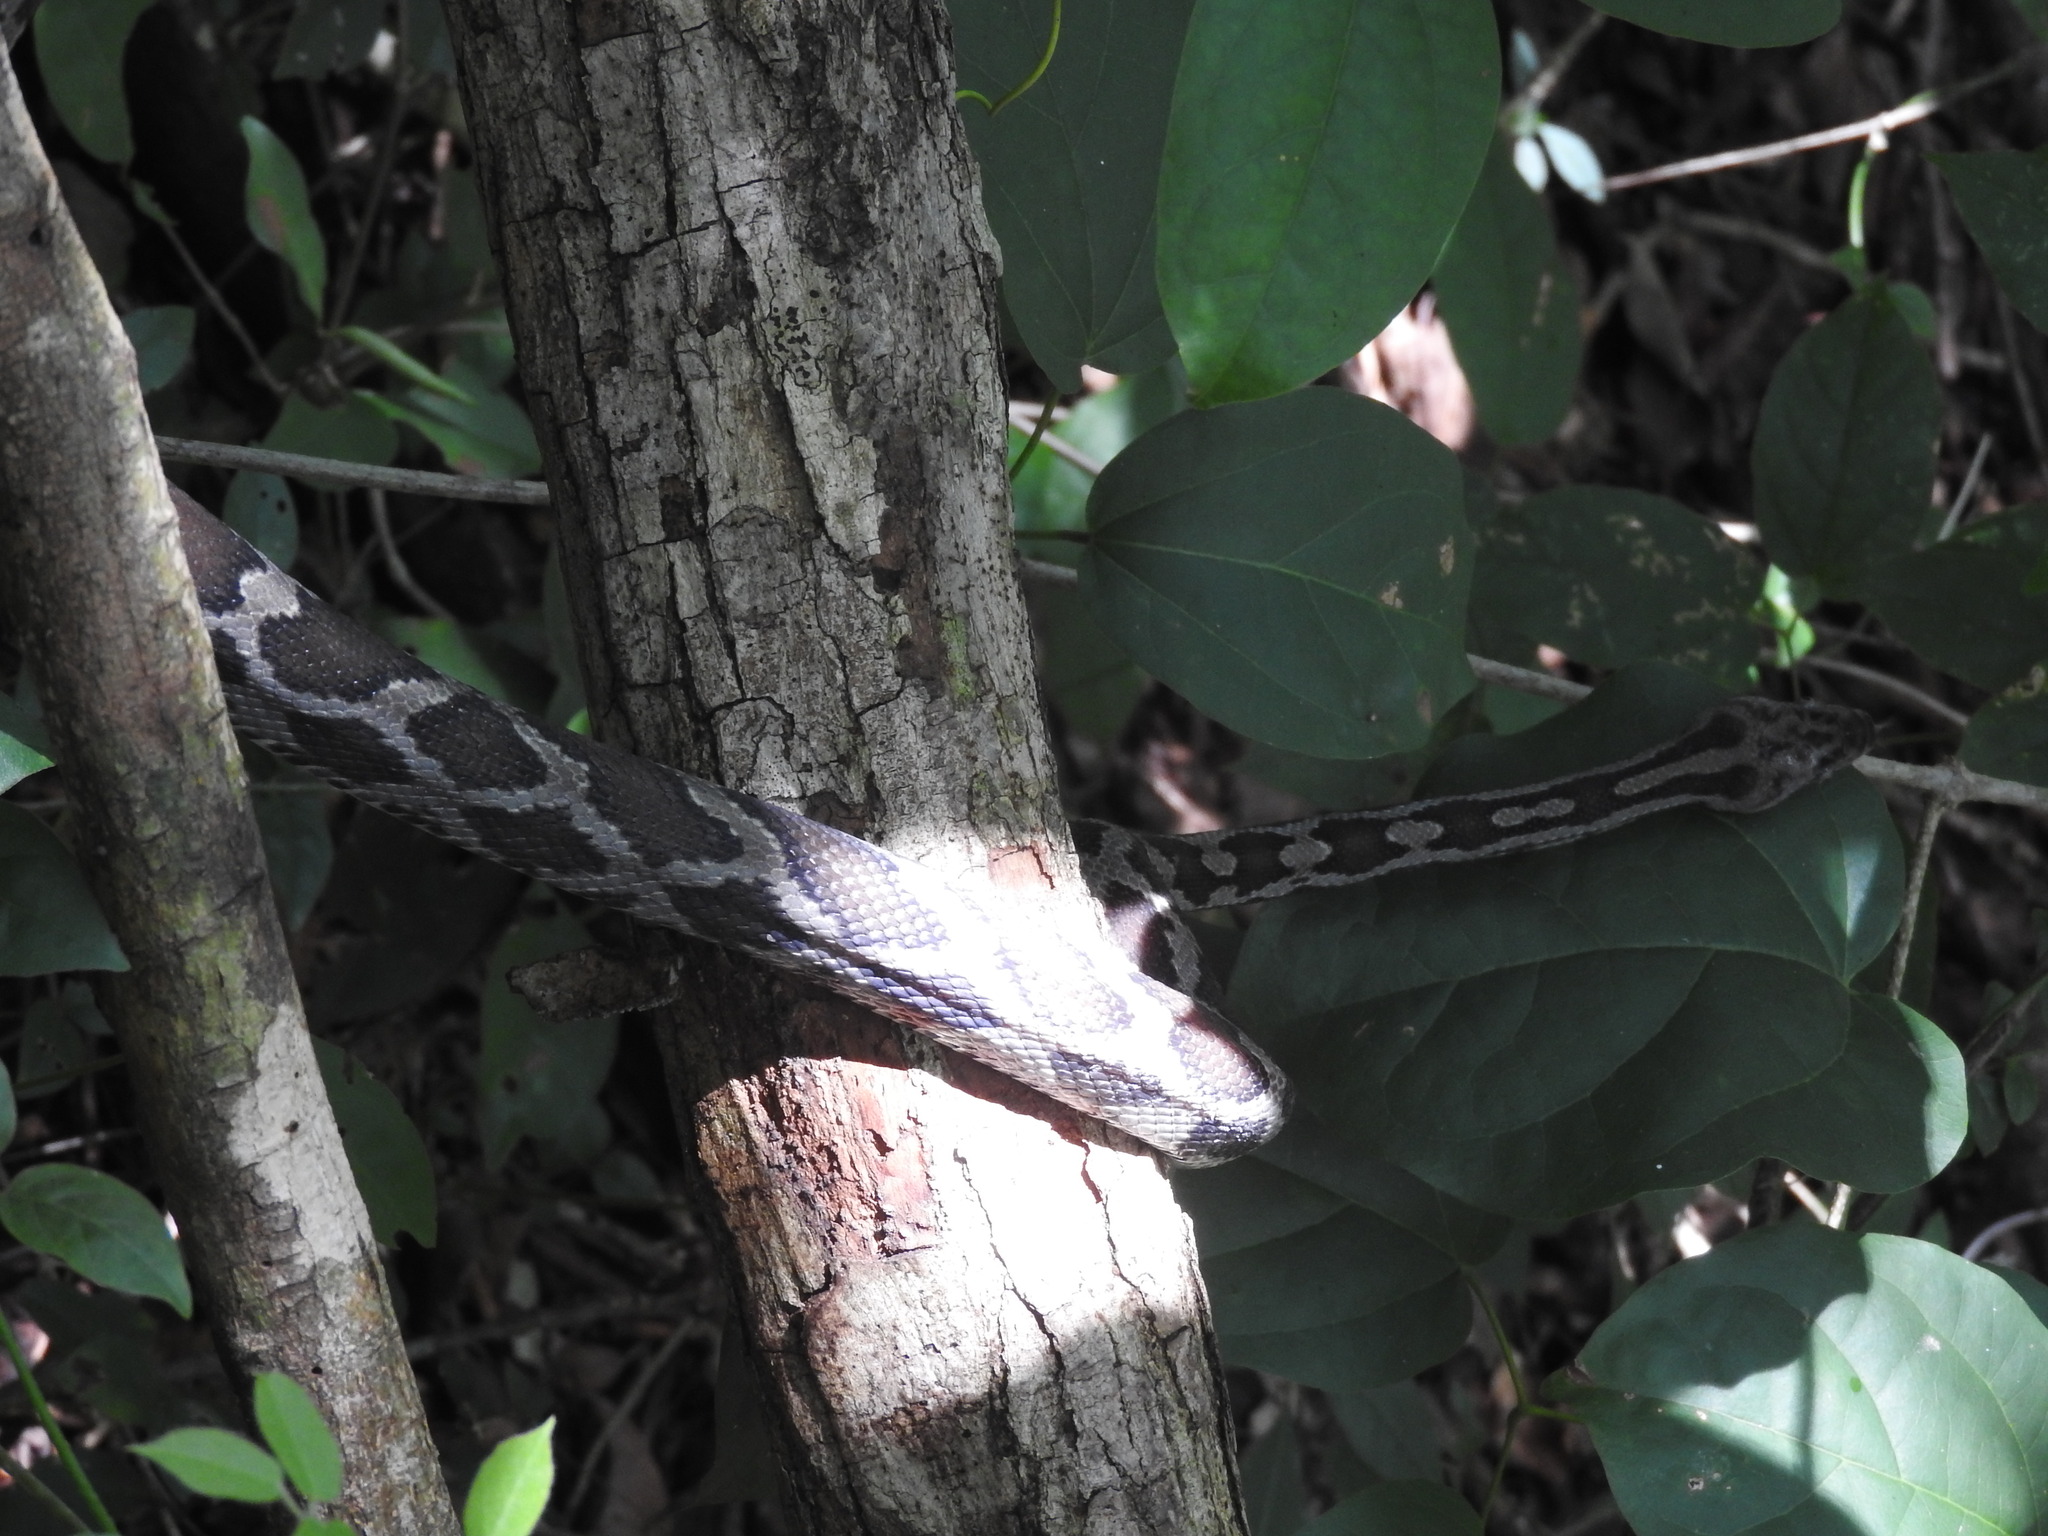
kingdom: Animalia
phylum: Chordata
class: Squamata
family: Colubridae
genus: Pseudelaphe
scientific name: Pseudelaphe phaescens
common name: Yucatan rat snake
